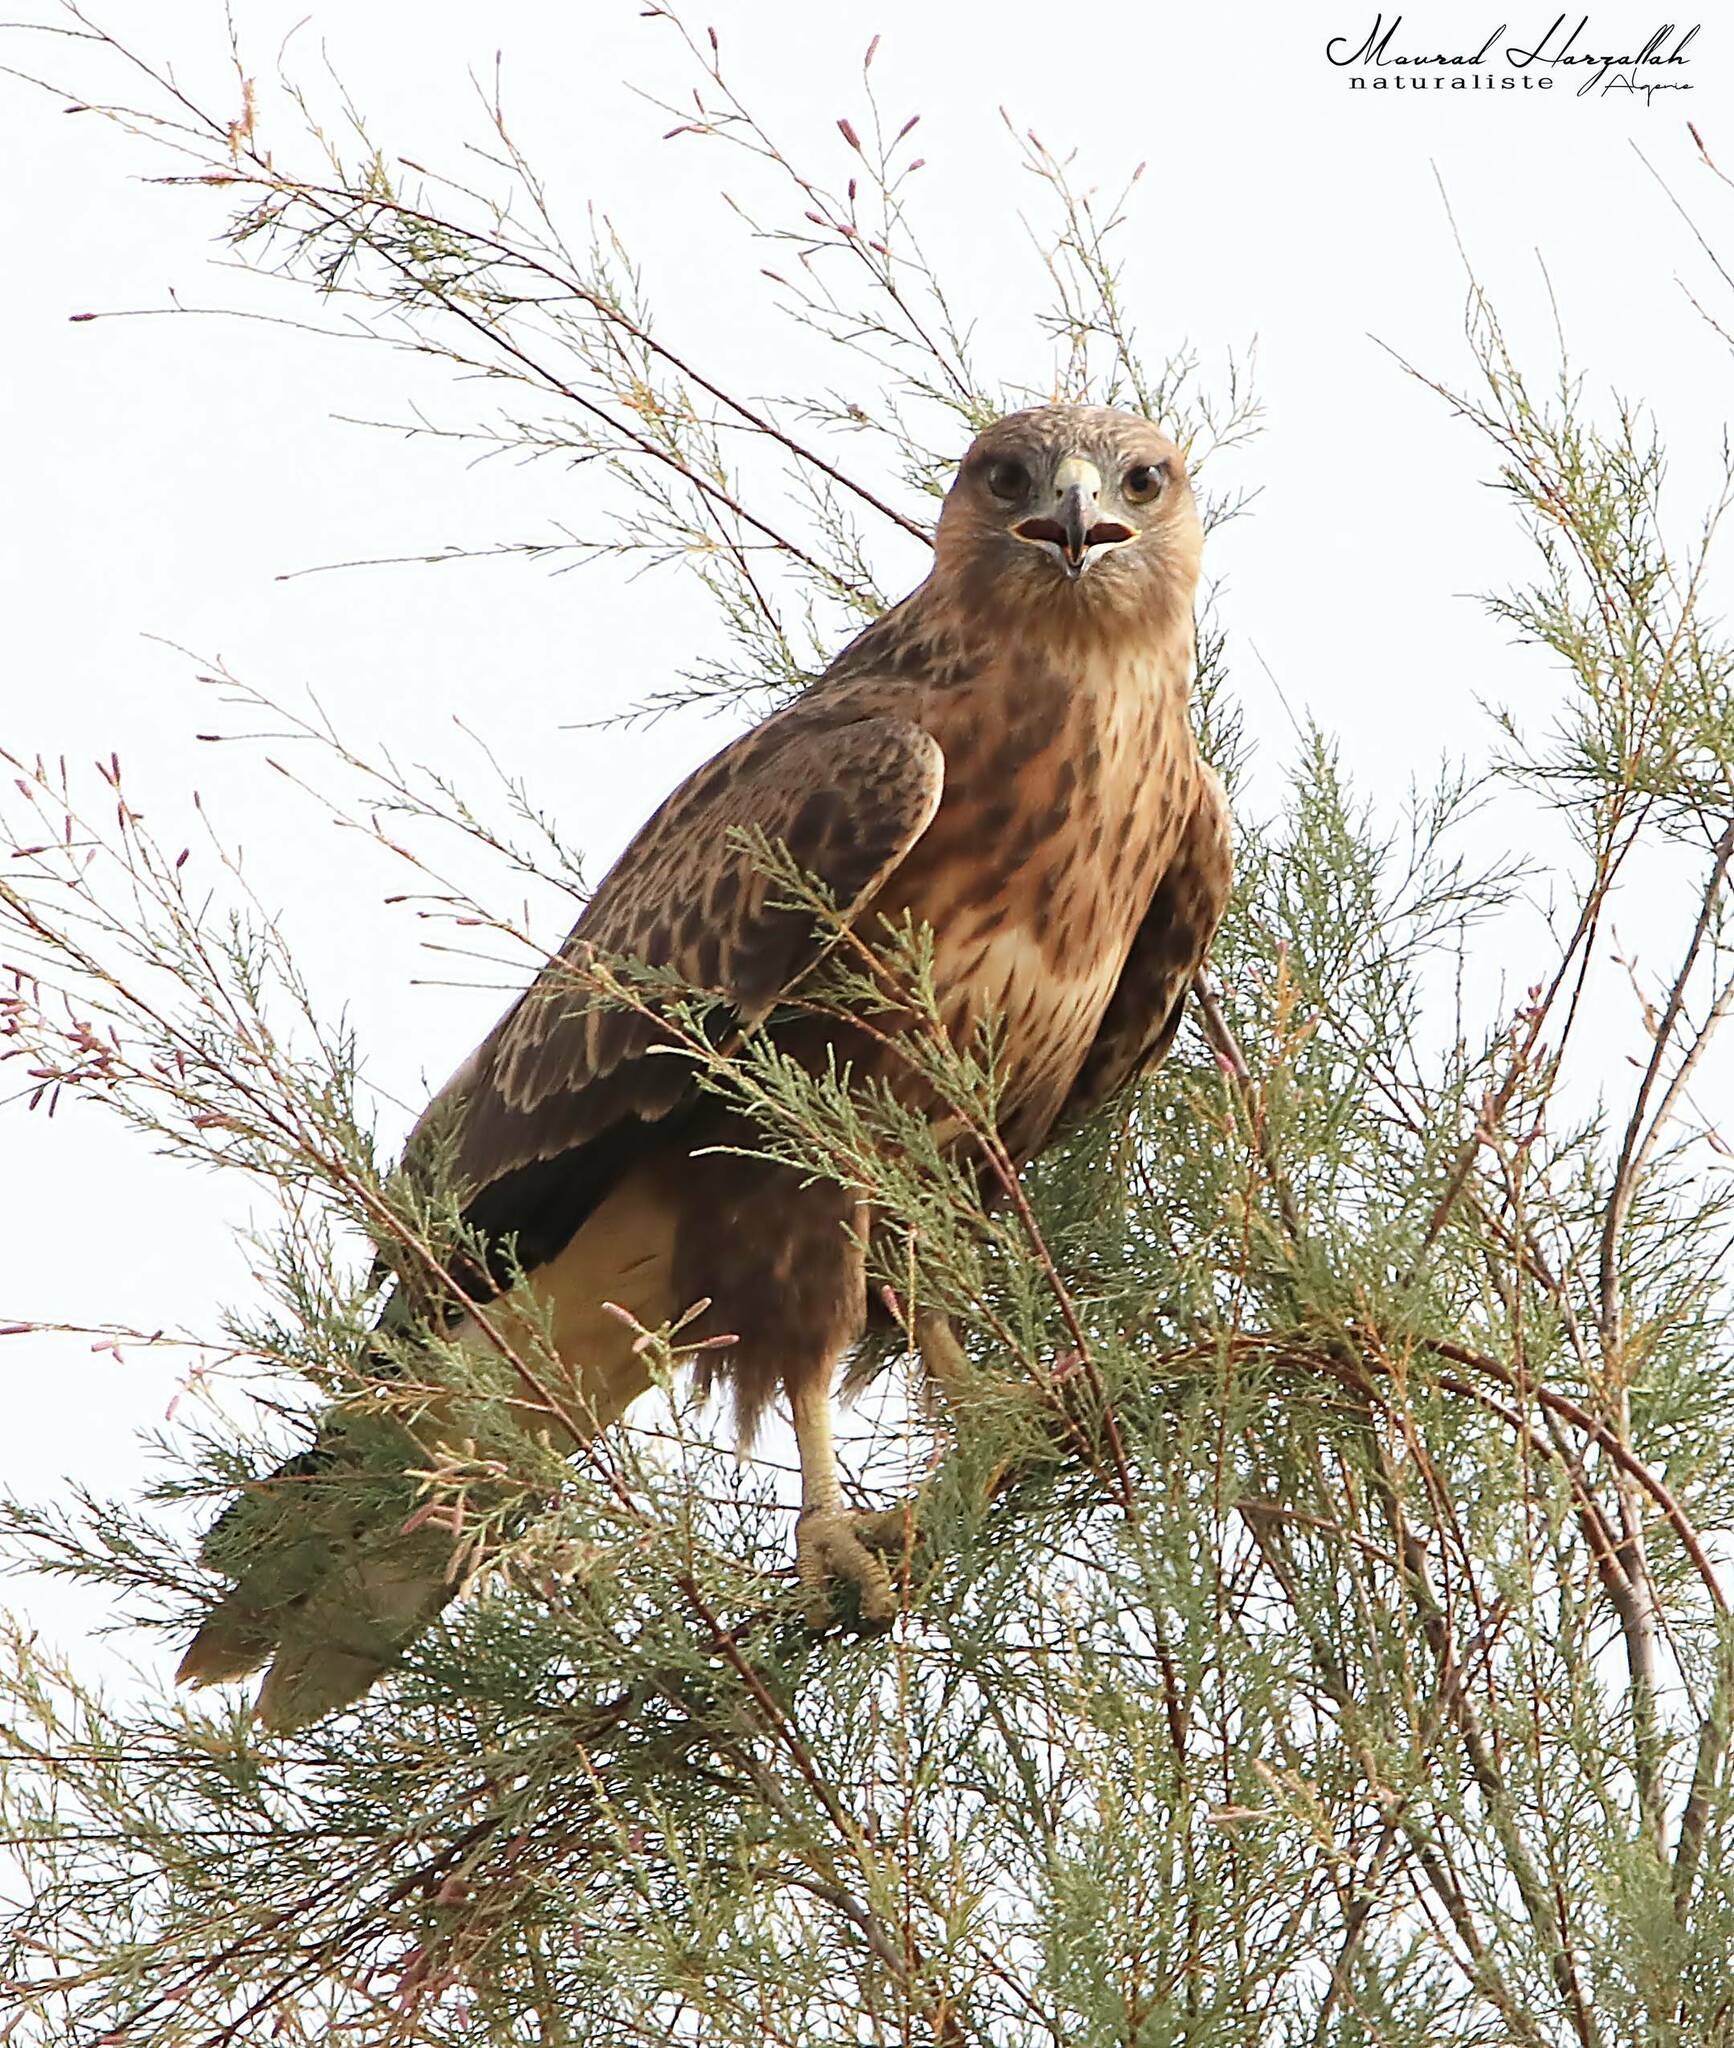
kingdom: Animalia
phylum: Chordata
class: Aves
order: Accipitriformes
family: Accipitridae
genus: Buteo
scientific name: Buteo rufinus
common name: Long-legged buzzard
